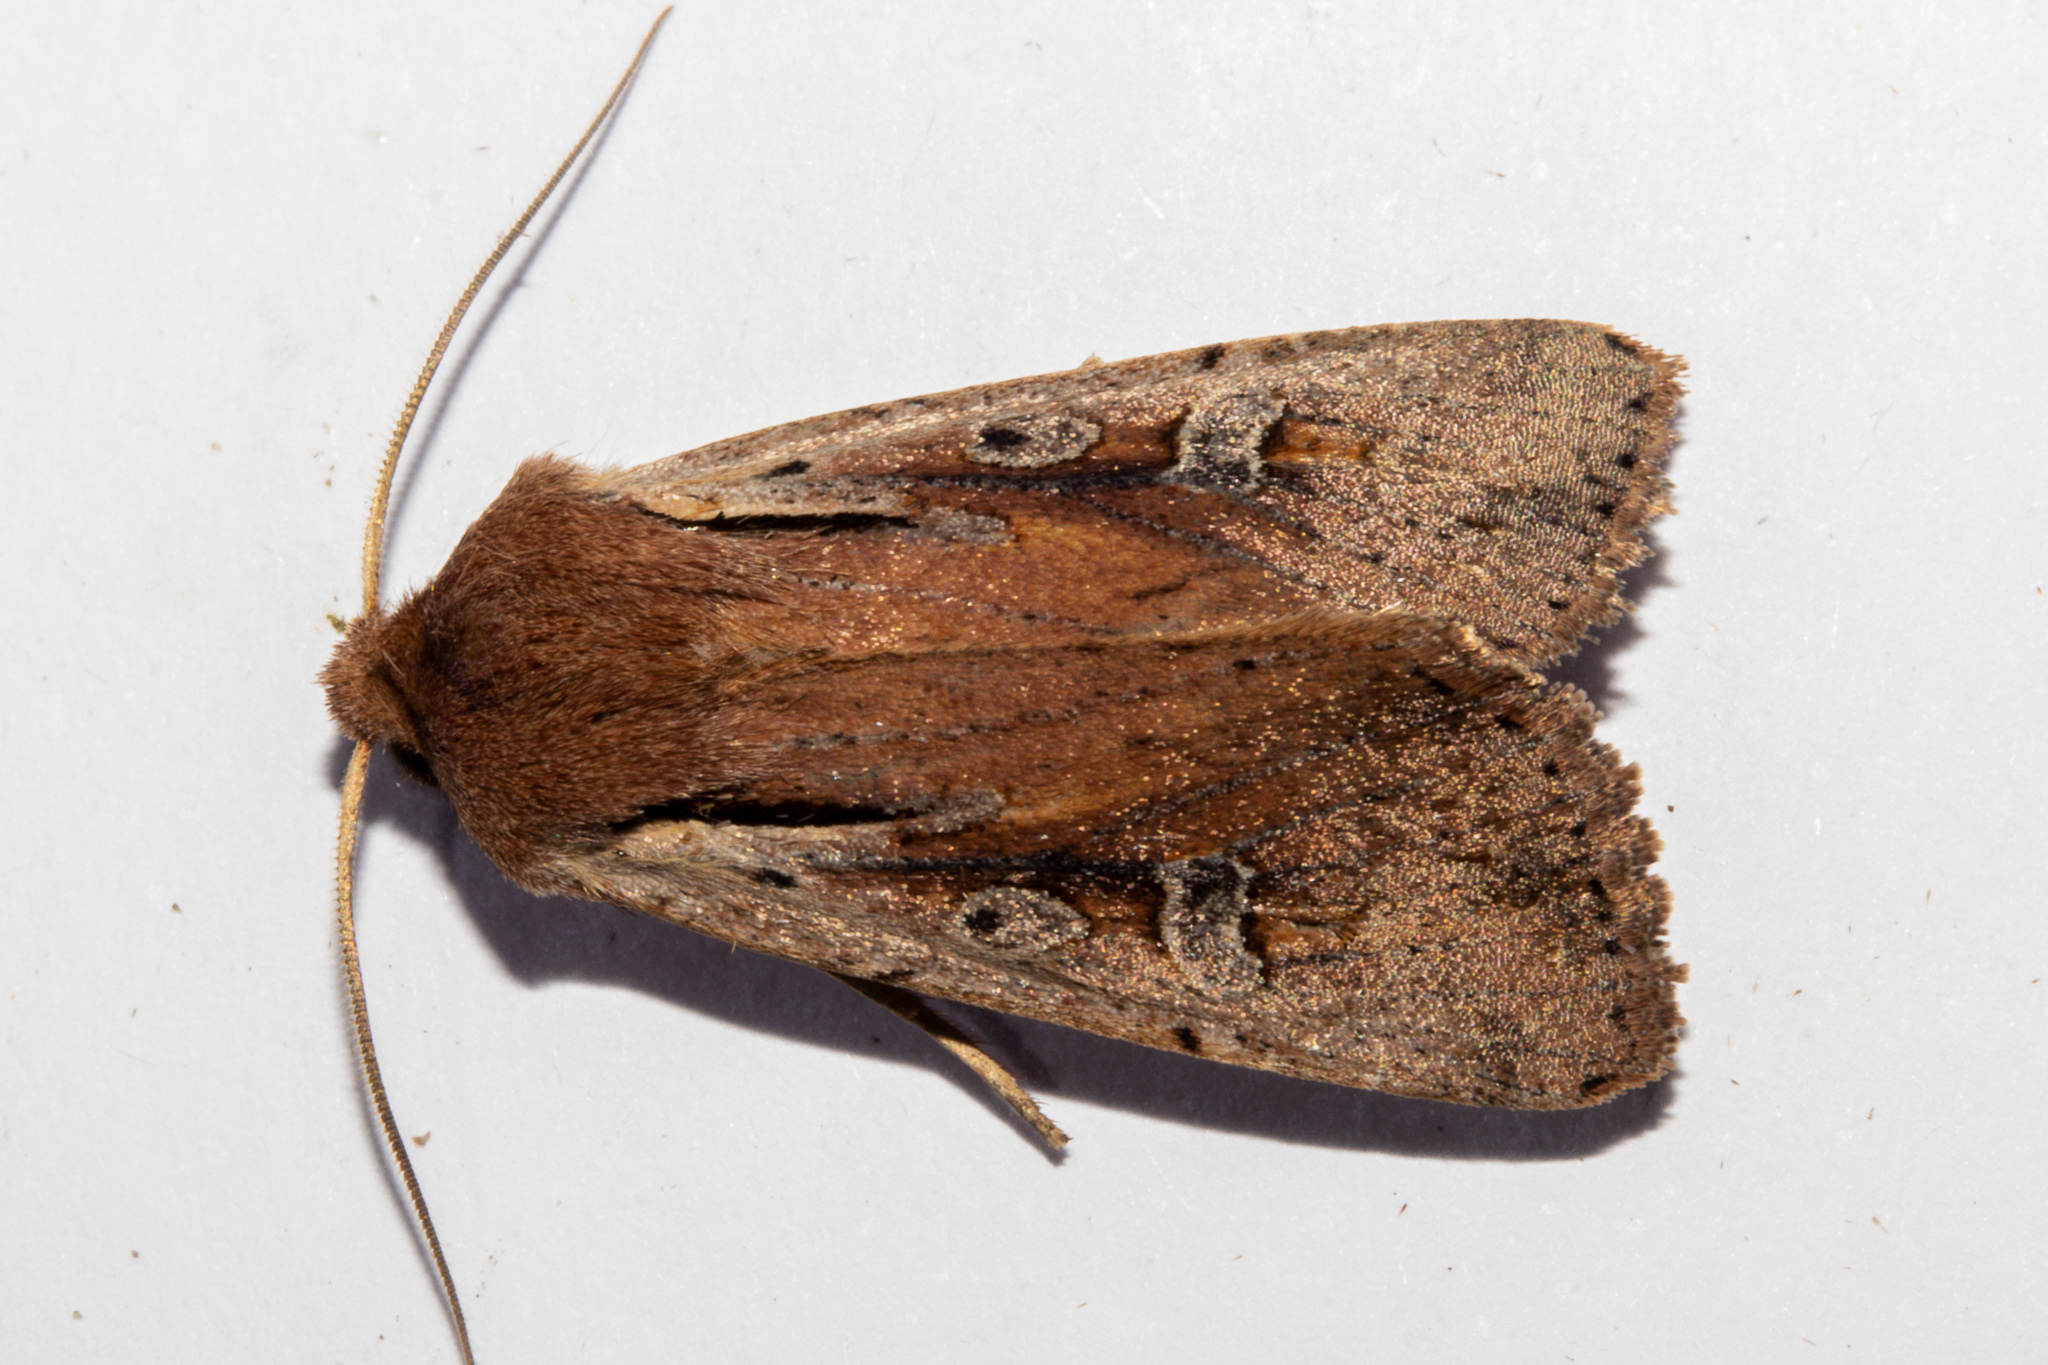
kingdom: Animalia
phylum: Arthropoda
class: Insecta
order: Lepidoptera
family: Noctuidae
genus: Ichneutica
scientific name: Ichneutica atristriga
